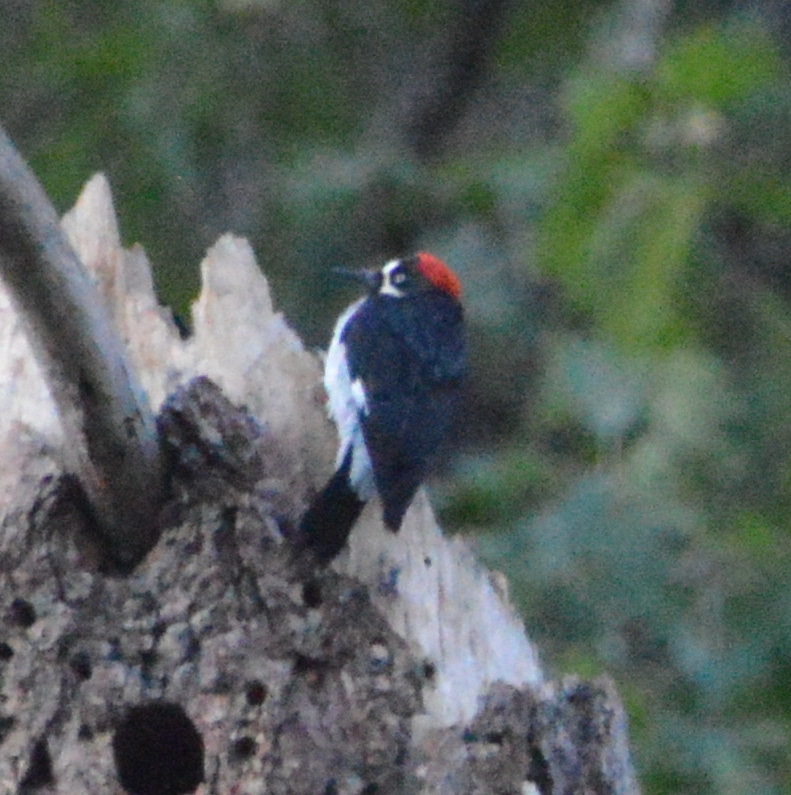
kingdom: Animalia
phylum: Chordata
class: Aves
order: Piciformes
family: Picidae
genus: Melanerpes
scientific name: Melanerpes formicivorus
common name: Acorn woodpecker
